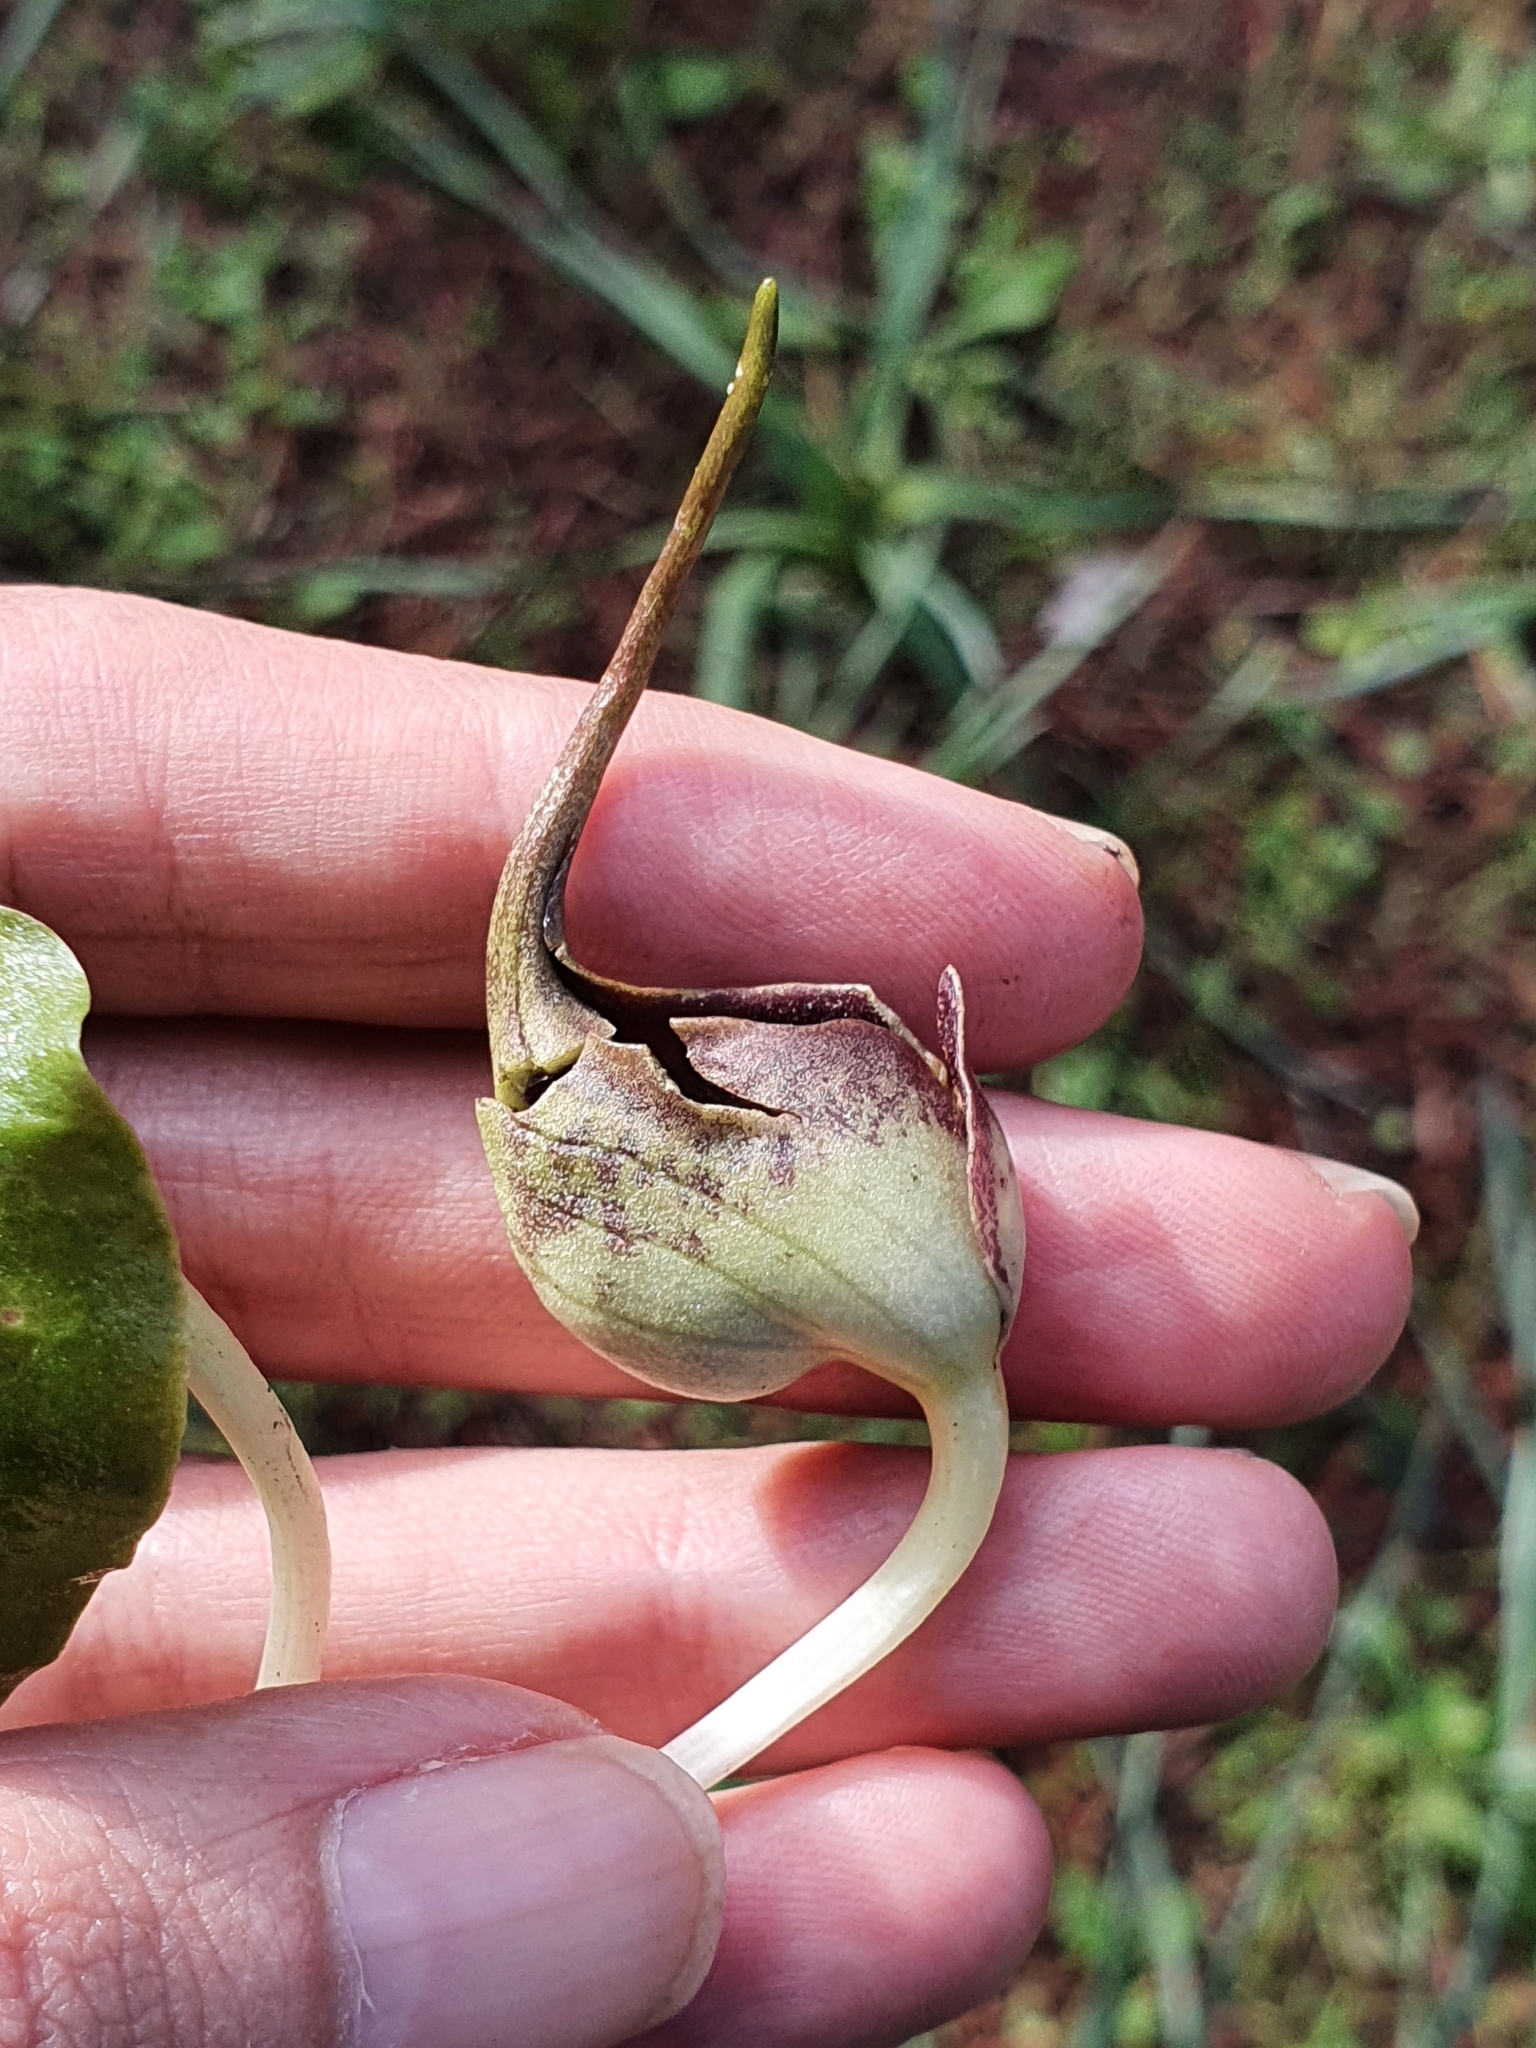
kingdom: Plantae
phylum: Tracheophyta
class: Liliopsida
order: Alismatales
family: Araceae
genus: Ambrosina
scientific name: Ambrosina bassii
